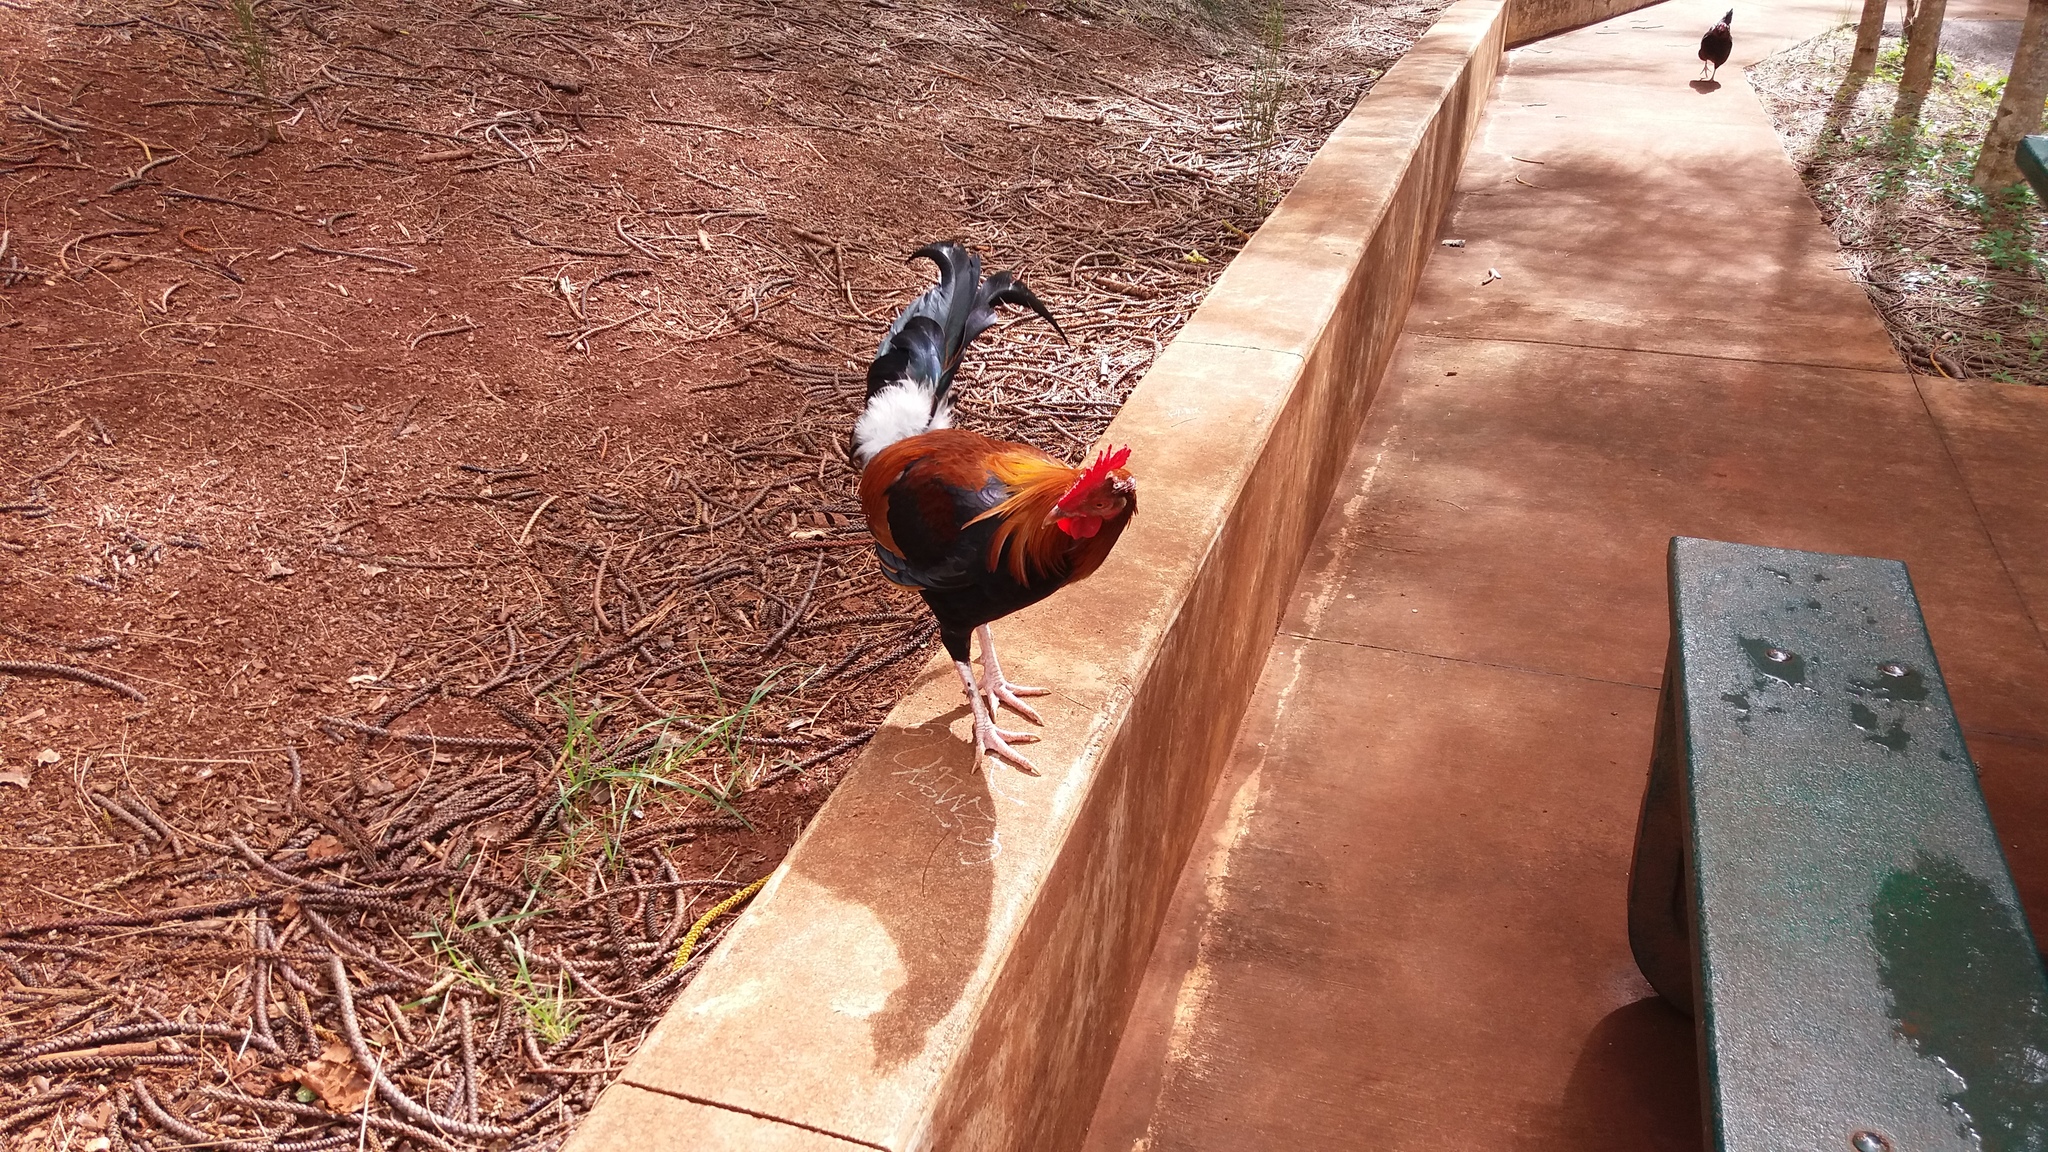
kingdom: Animalia
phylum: Chordata
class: Aves
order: Galliformes
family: Phasianidae
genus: Gallus
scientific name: Gallus gallus
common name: Red junglefowl
